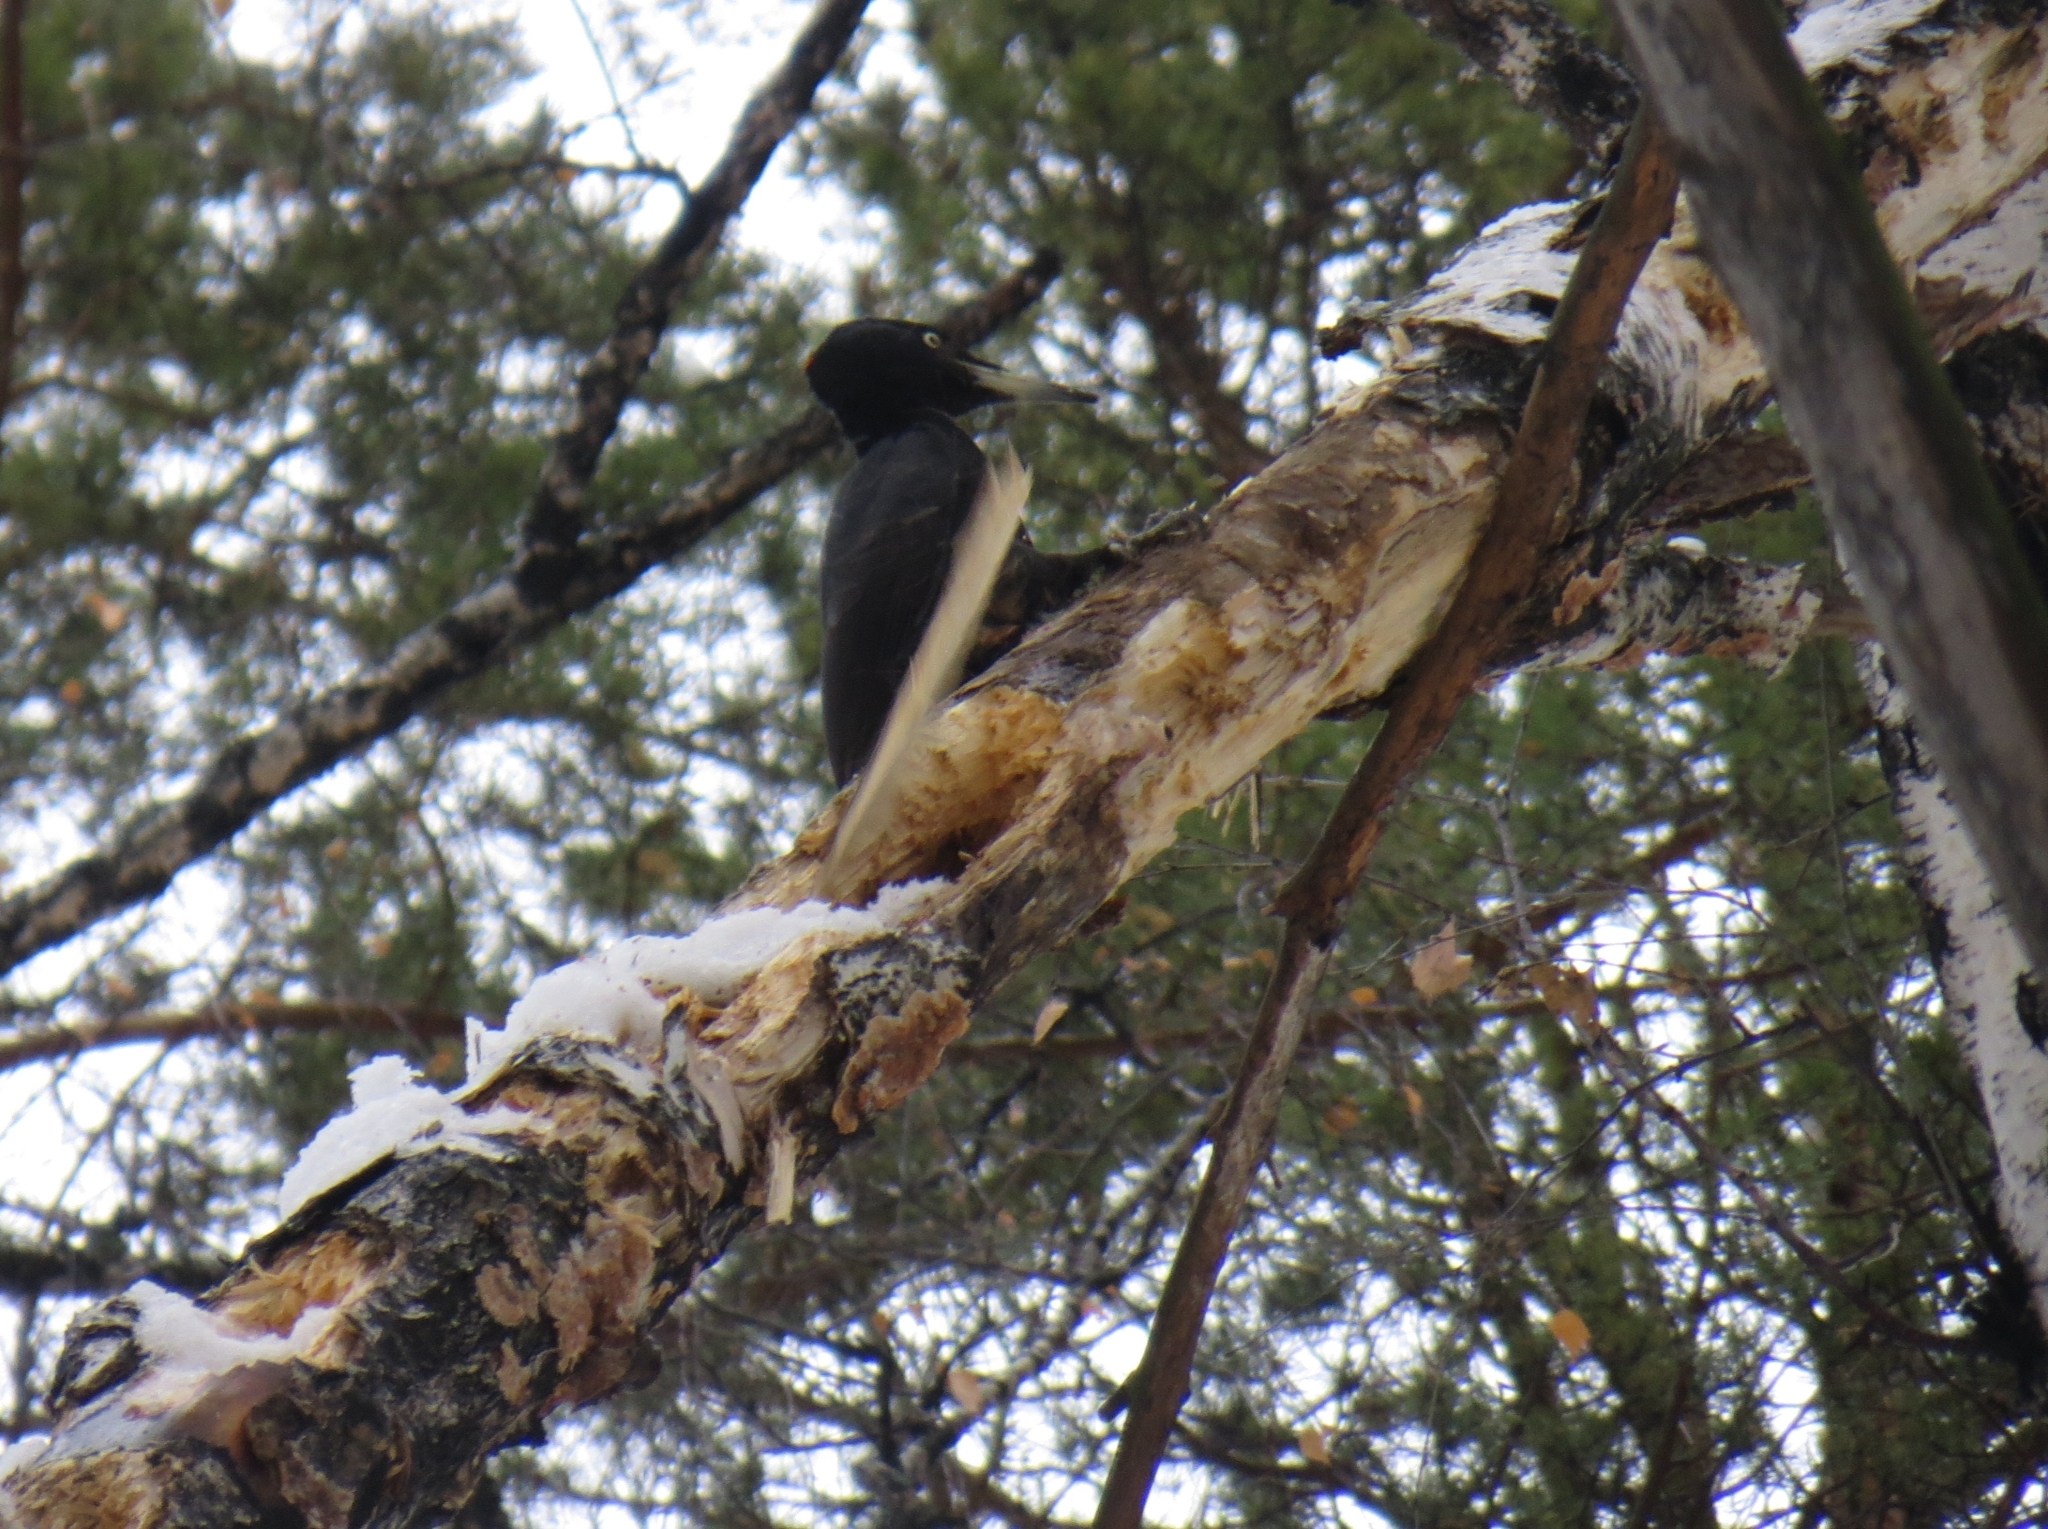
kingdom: Animalia
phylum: Chordata
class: Aves
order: Piciformes
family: Picidae
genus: Dryocopus
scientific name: Dryocopus martius
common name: Black woodpecker
